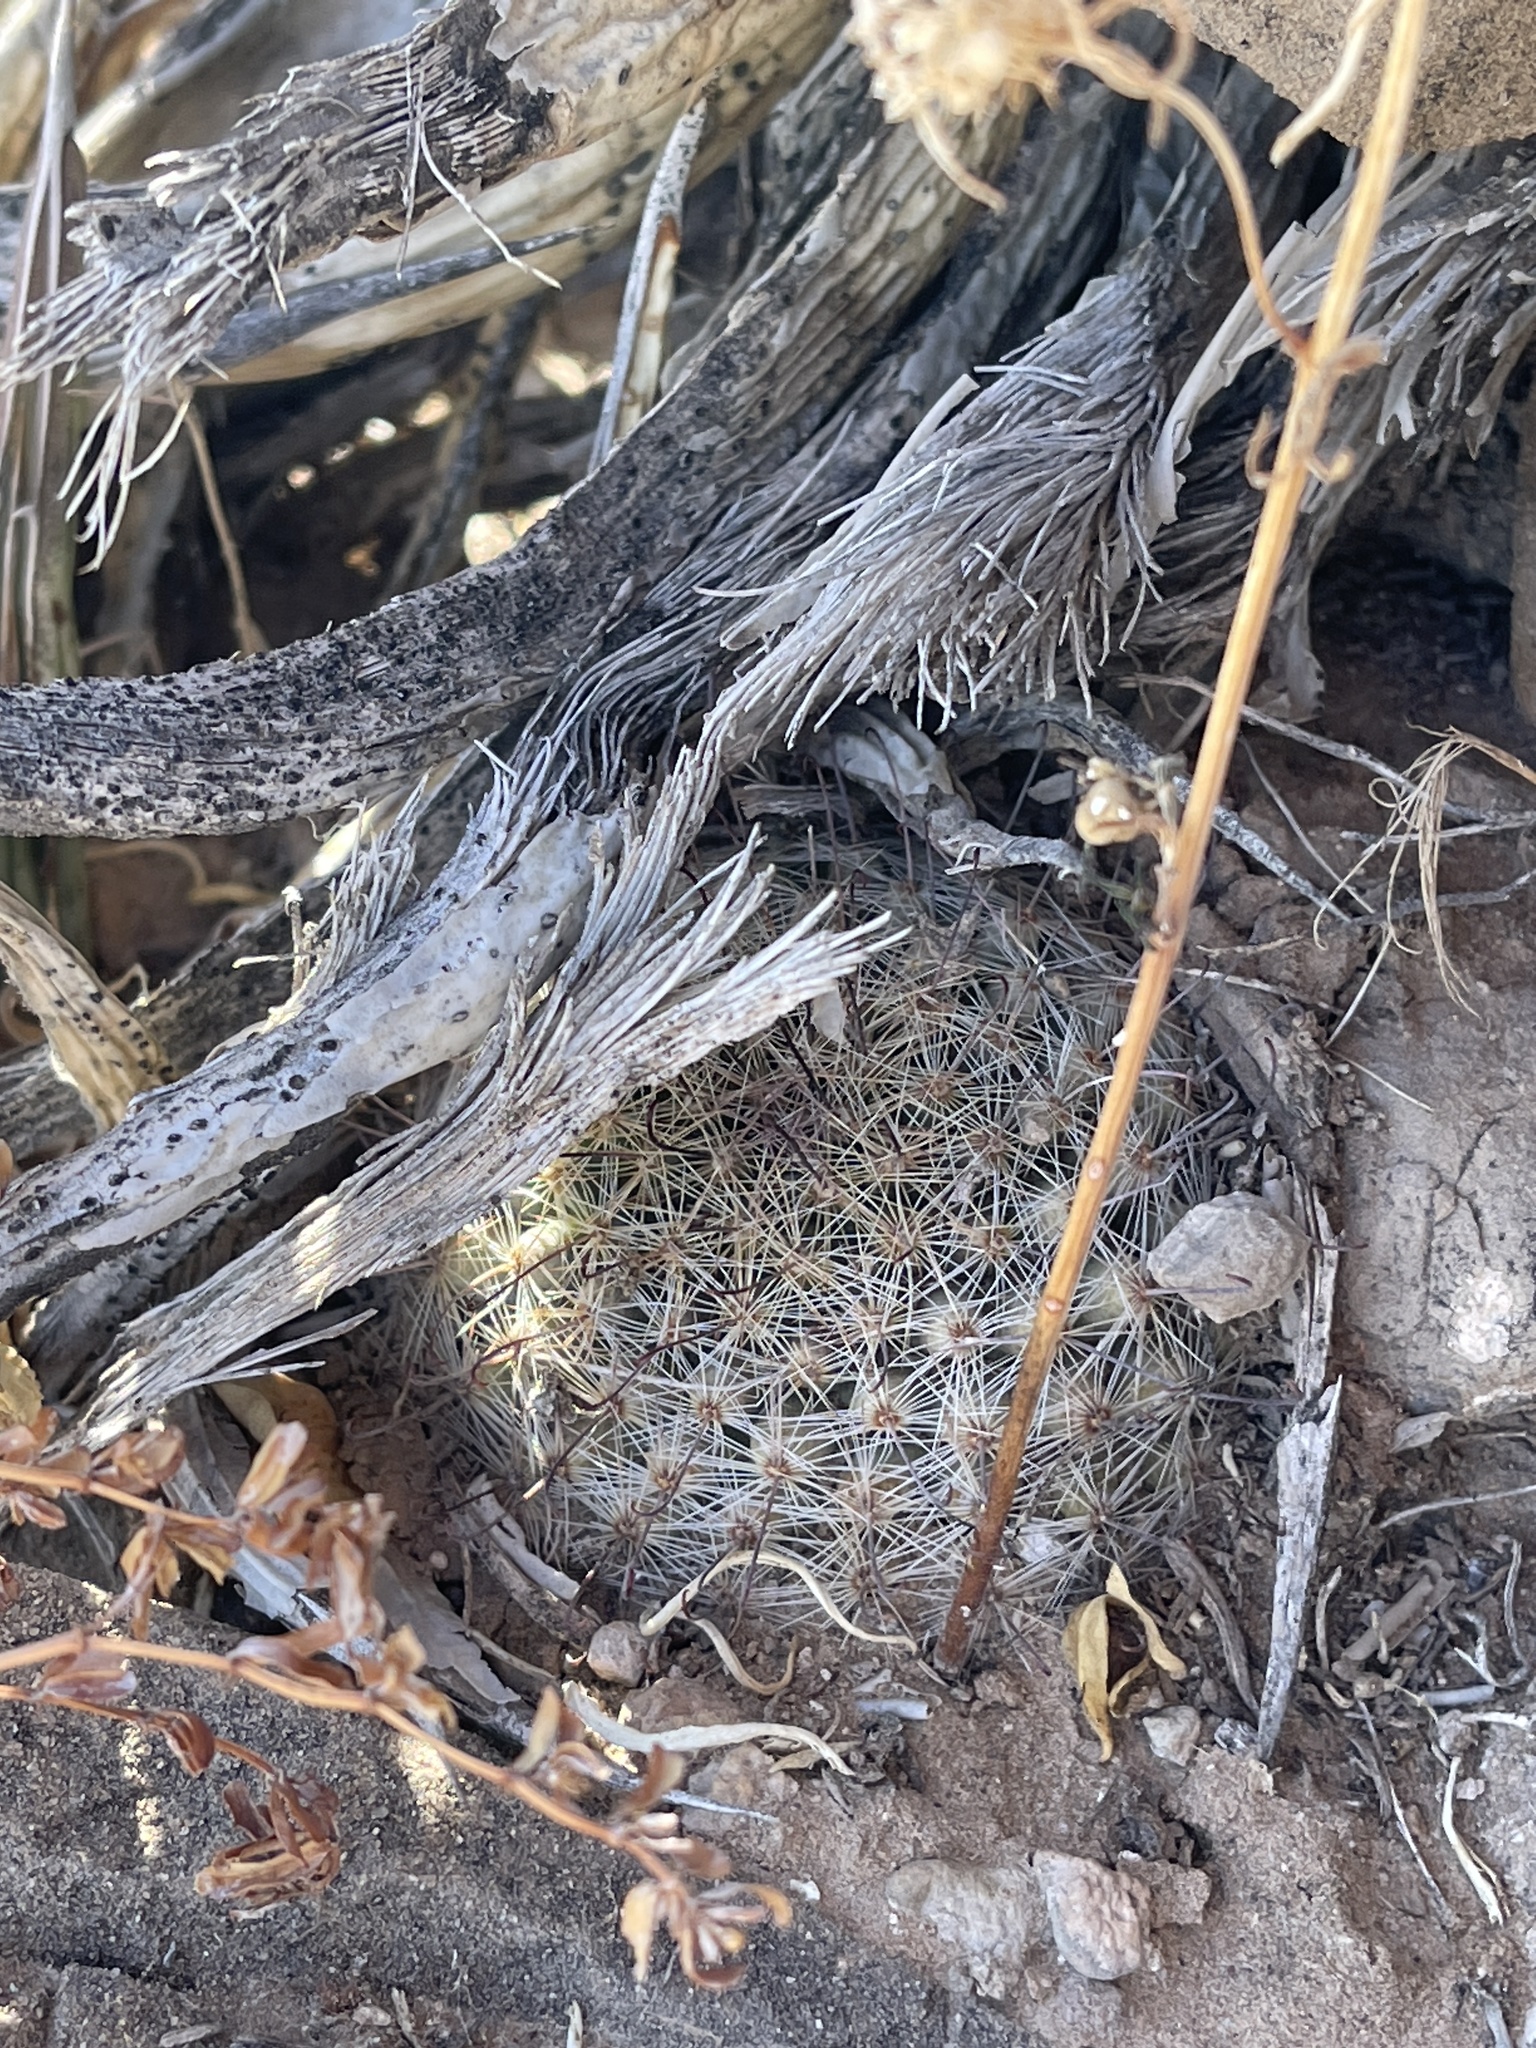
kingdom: Plantae
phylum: Tracheophyta
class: Magnoliopsida
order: Caryophyllales
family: Cactaceae
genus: Cochemiea
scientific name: Cochemiea grahamii
